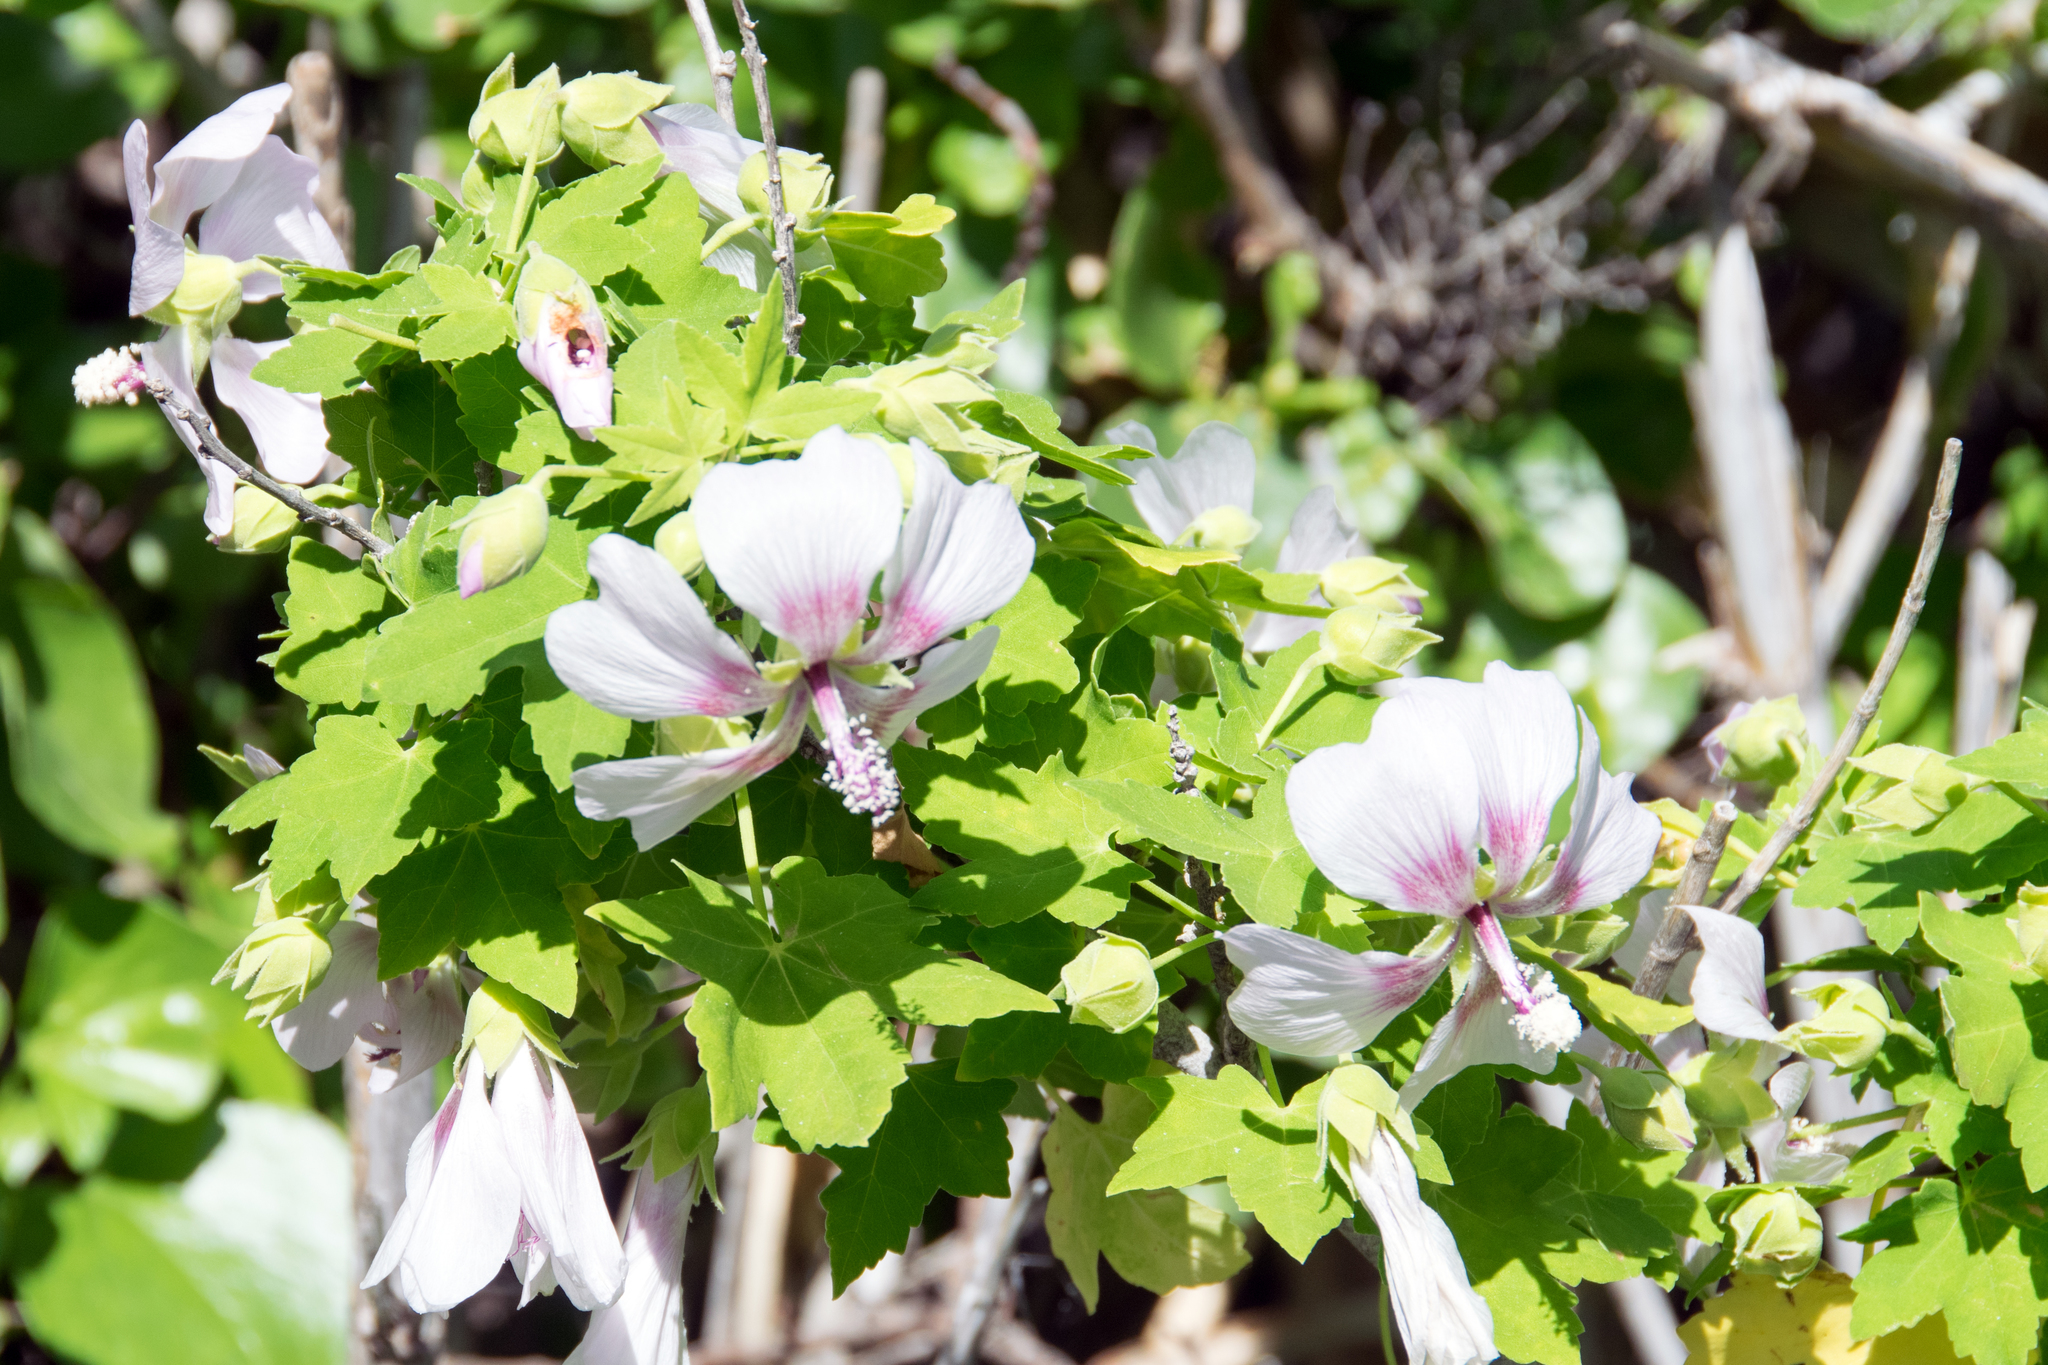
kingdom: Plantae
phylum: Tracheophyta
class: Magnoliopsida
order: Malvales
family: Malvaceae
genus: Malva
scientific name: Malva acerifolia
